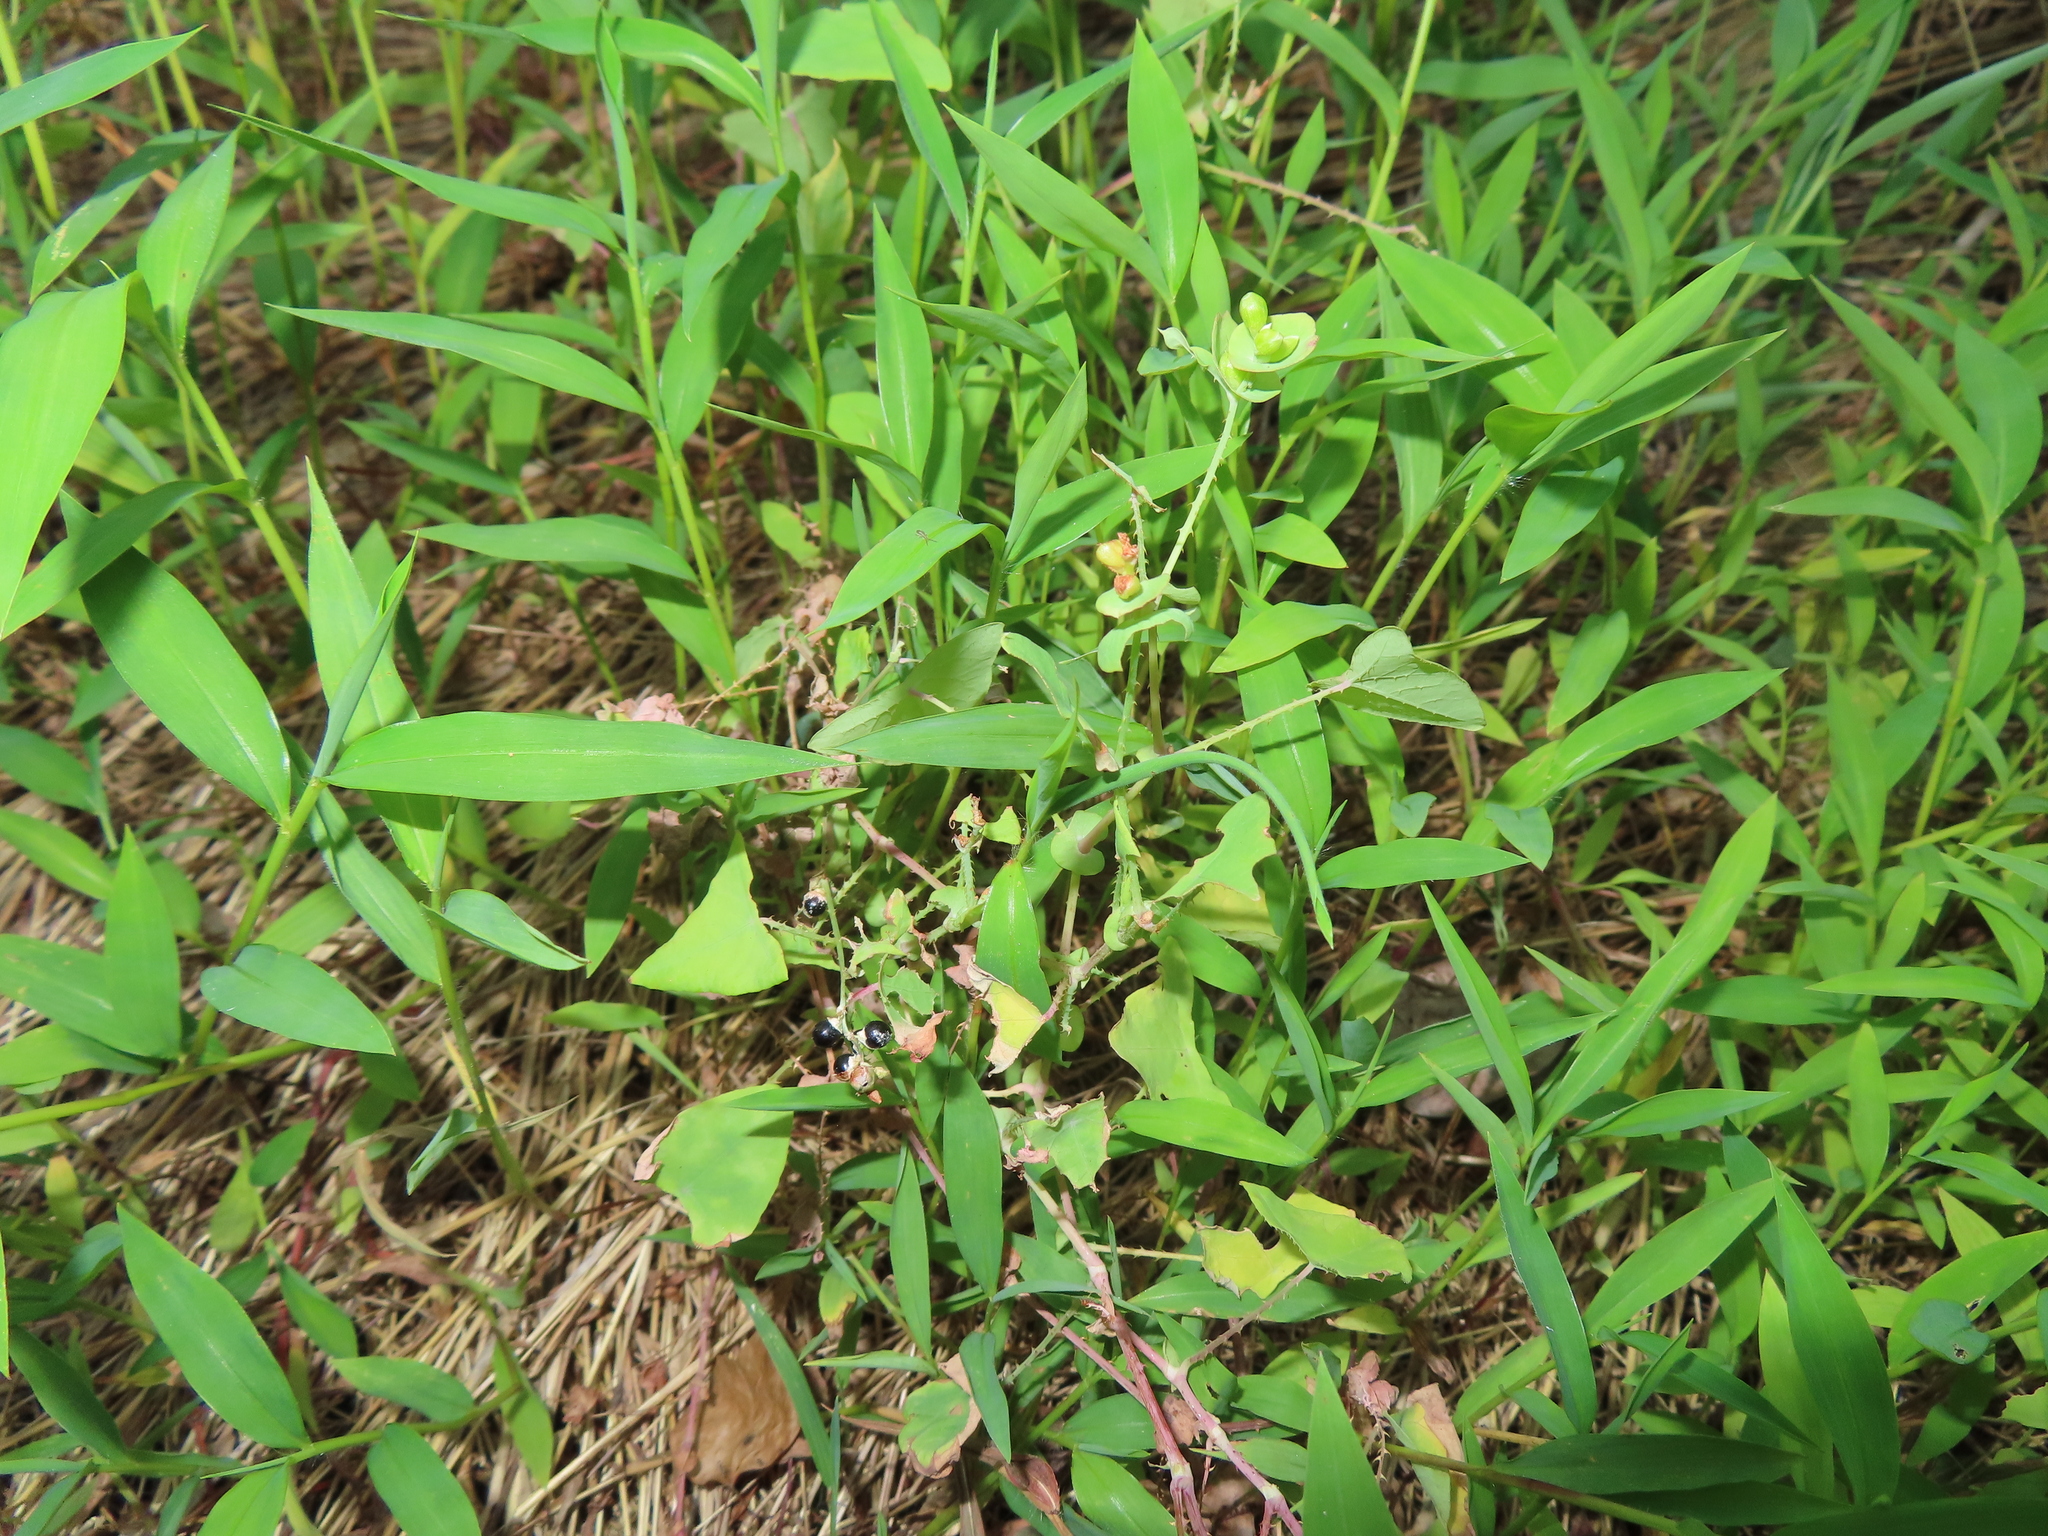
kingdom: Plantae
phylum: Tracheophyta
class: Magnoliopsida
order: Caryophyllales
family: Polygonaceae
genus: Persicaria
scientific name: Persicaria perfoliata
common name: Asiatic tearthumb
